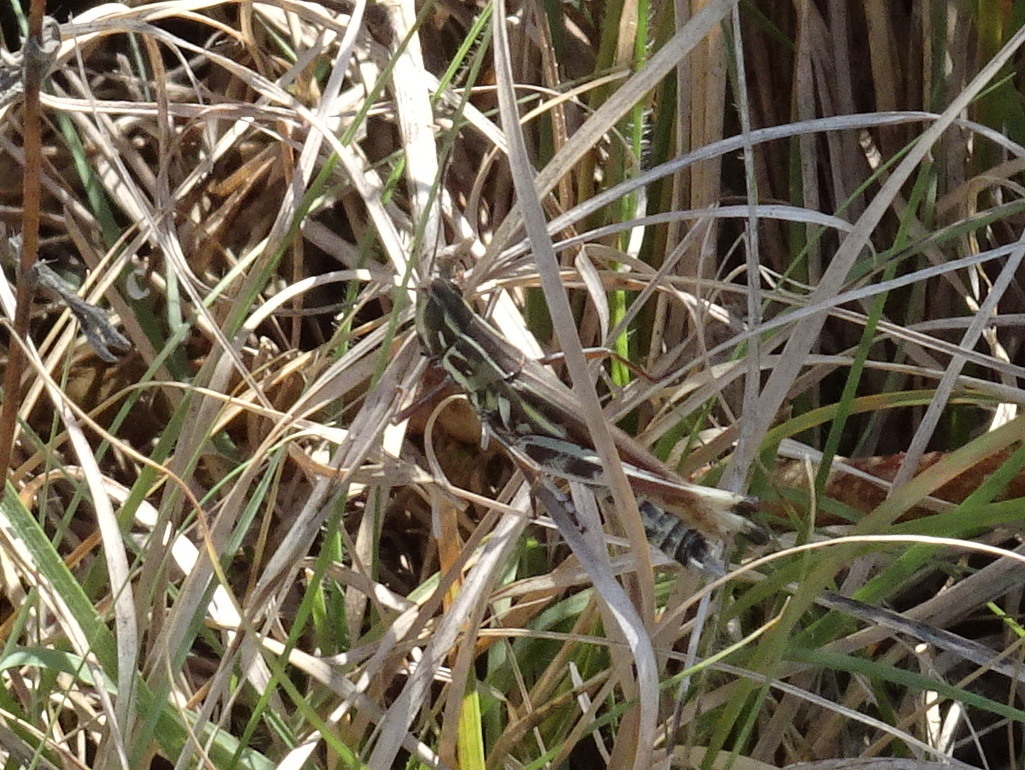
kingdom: Animalia
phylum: Arthropoda
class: Insecta
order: Orthoptera
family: Acrididae
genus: Syrbula
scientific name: Syrbula admirabilis
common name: Handsome grasshopper
